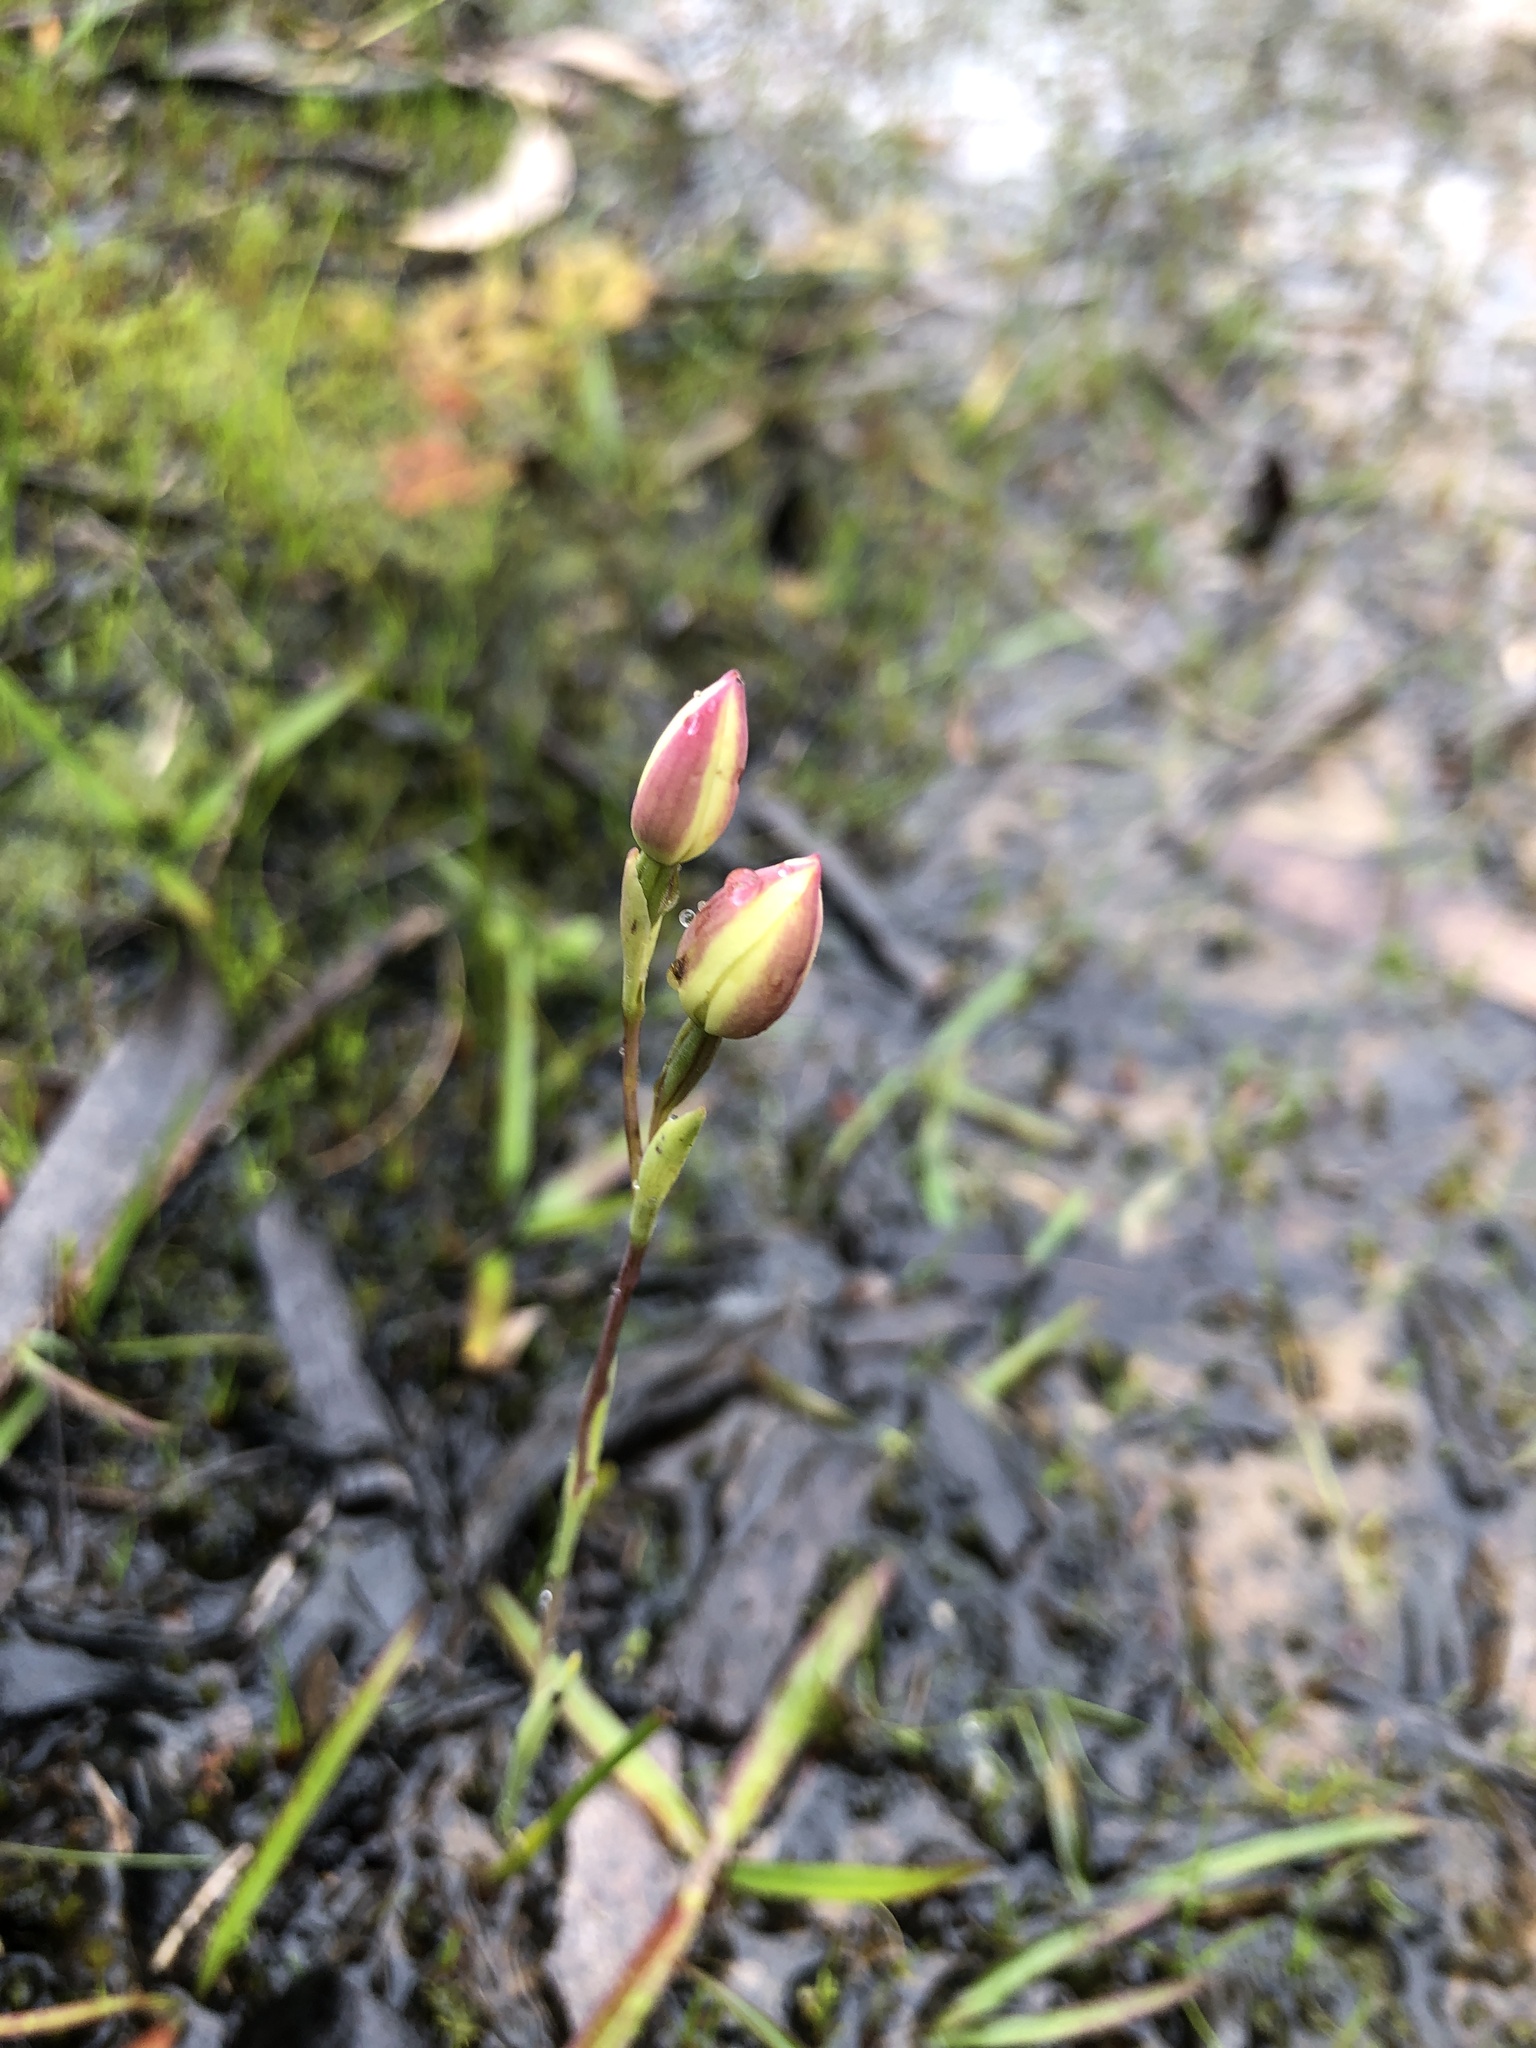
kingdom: Plantae
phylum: Tracheophyta
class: Liliopsida
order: Asparagales
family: Orchidaceae
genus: Thelymitra
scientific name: Thelymitra antennifera
